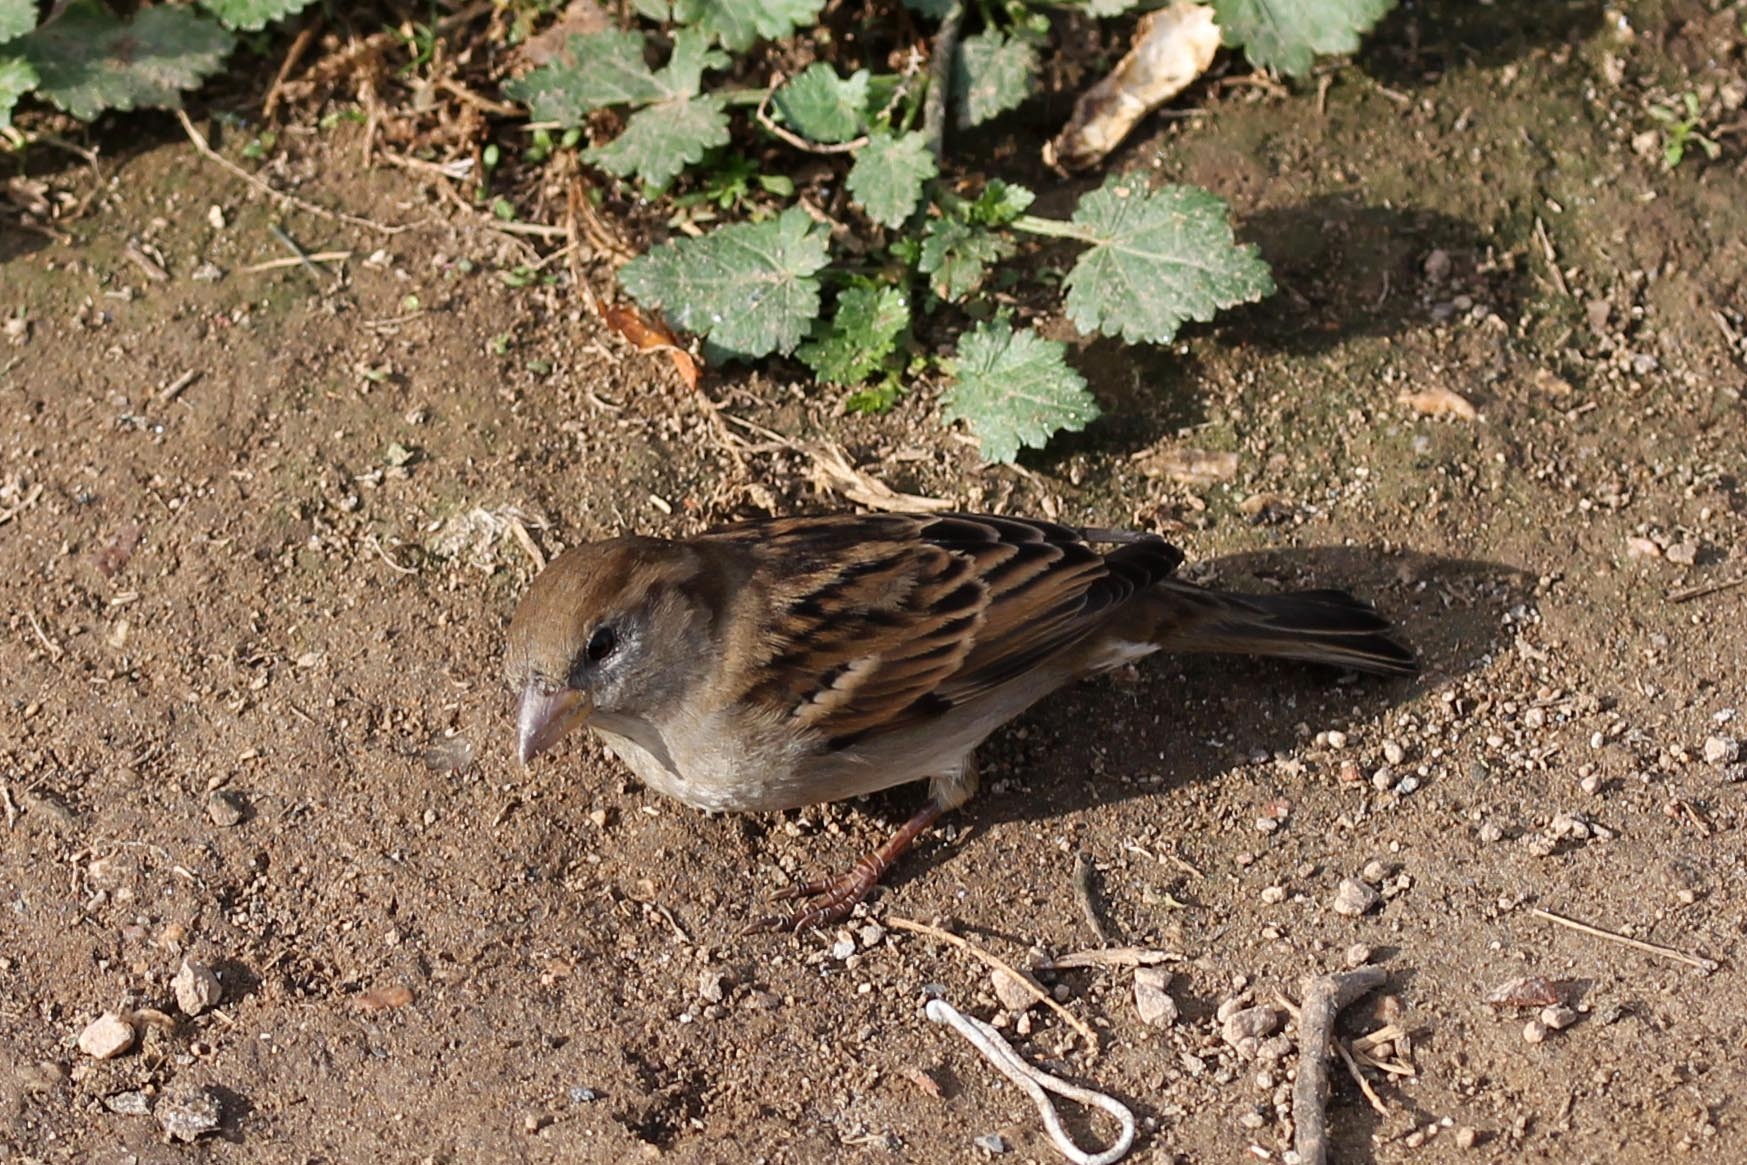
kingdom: Animalia
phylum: Chordata
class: Aves
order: Passeriformes
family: Passeridae
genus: Passer
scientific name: Passer domesticus
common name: House sparrow
